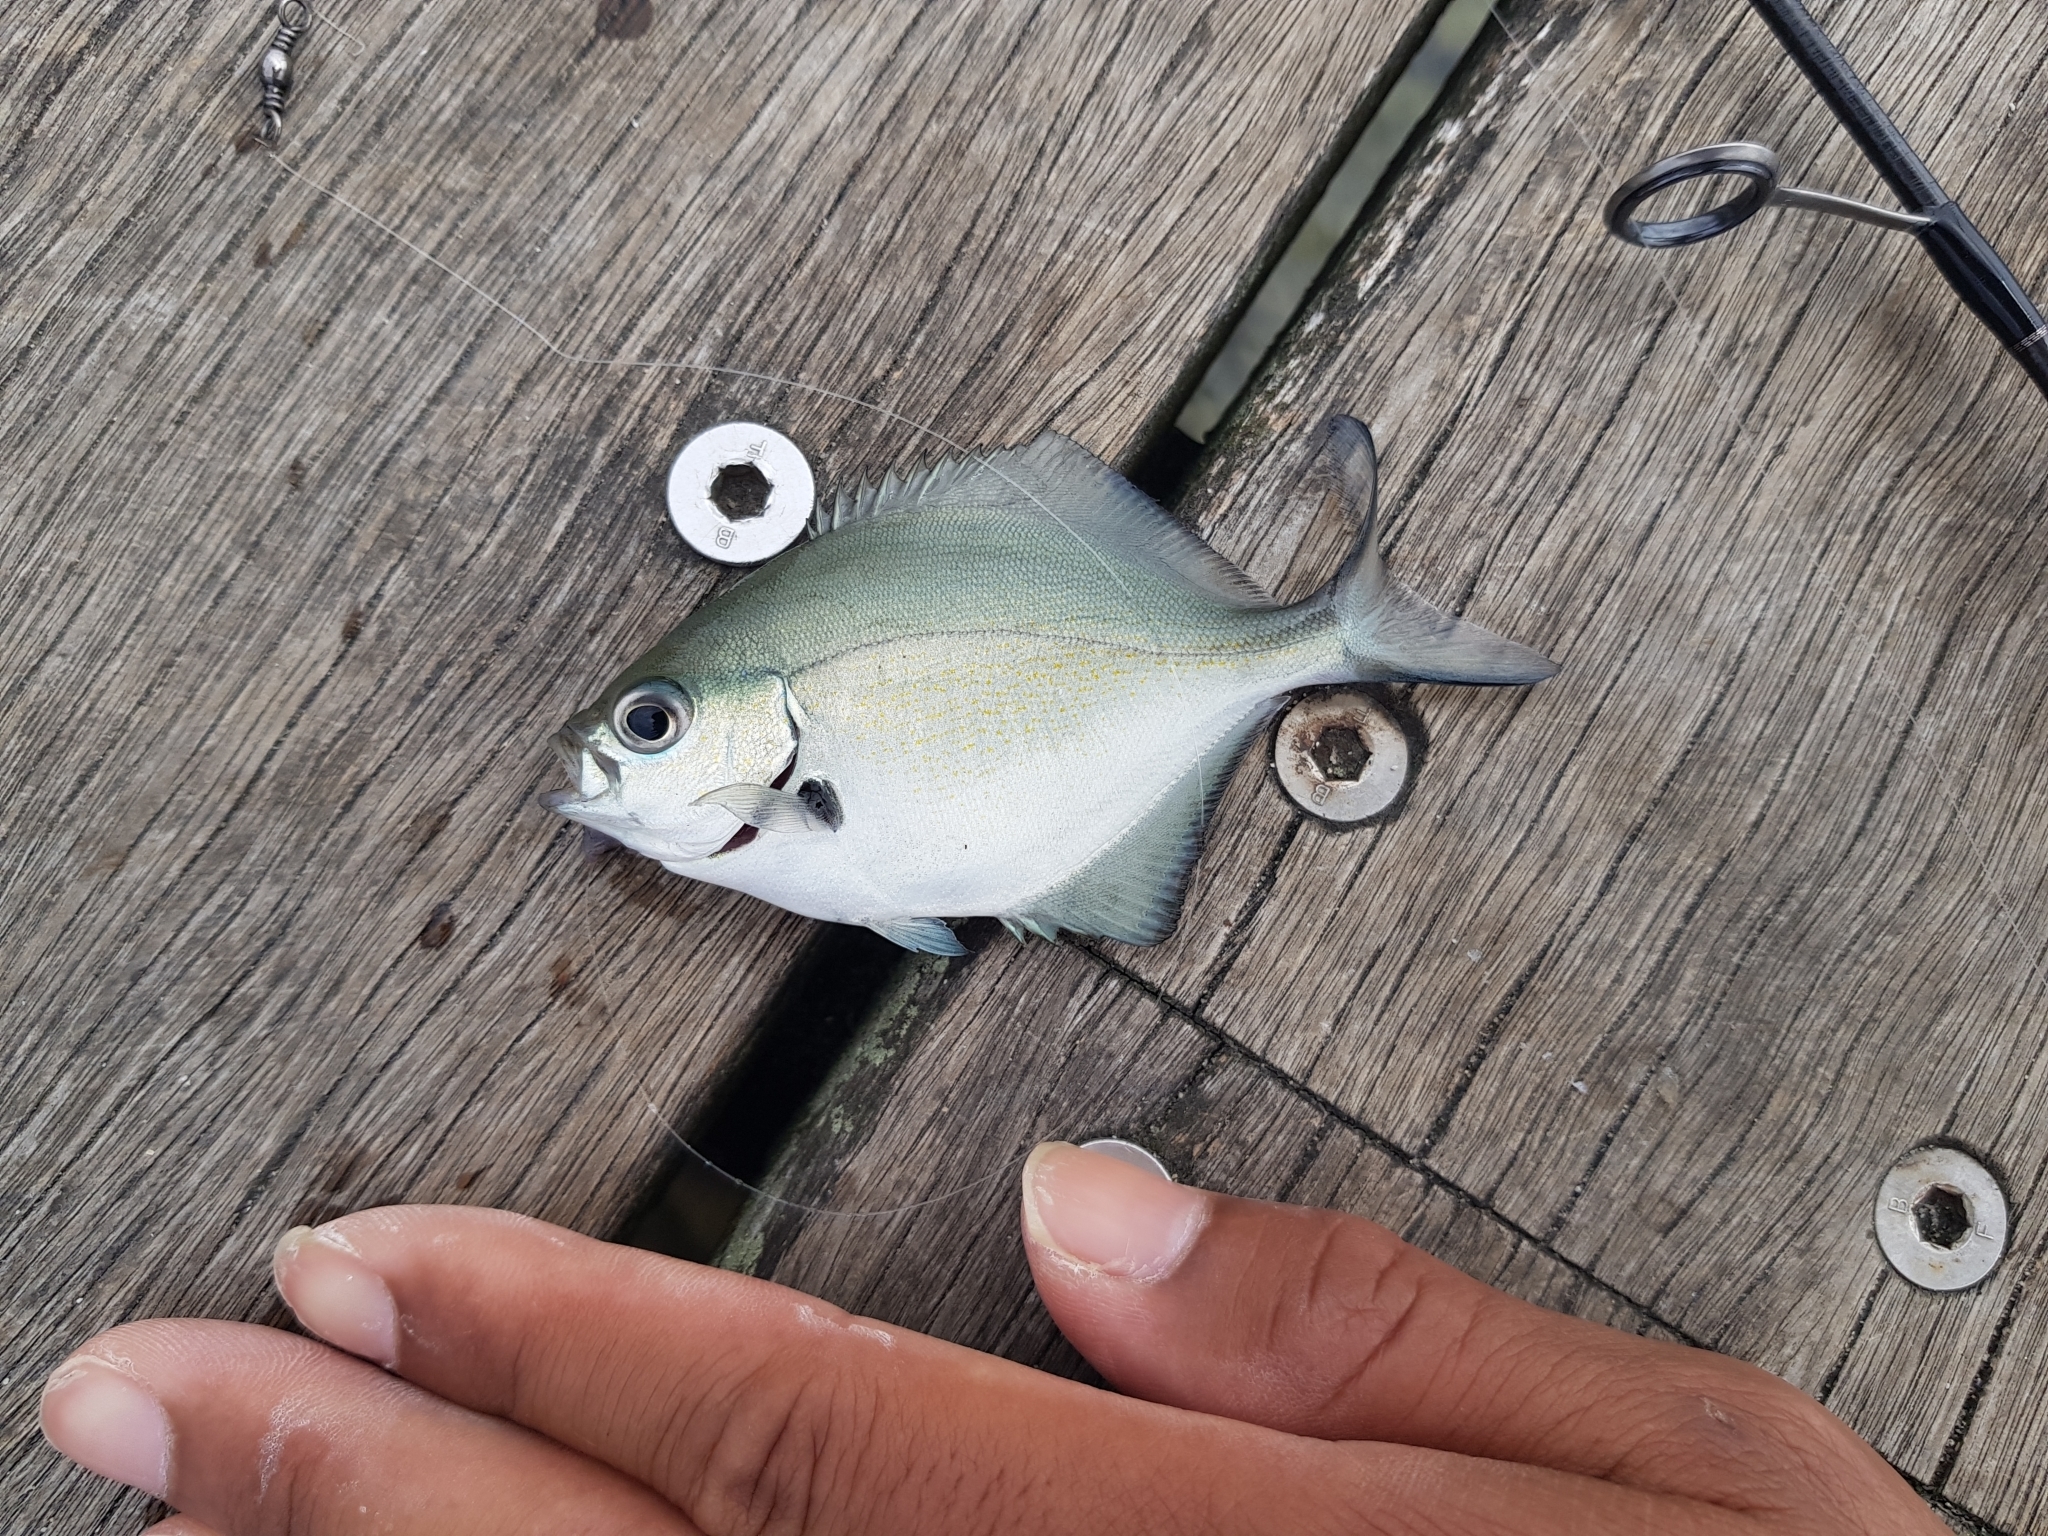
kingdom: Animalia
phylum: Chordata
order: Perciformes
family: Kyphosidae
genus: Scorpis
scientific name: Scorpis lineolata
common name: Sweep
